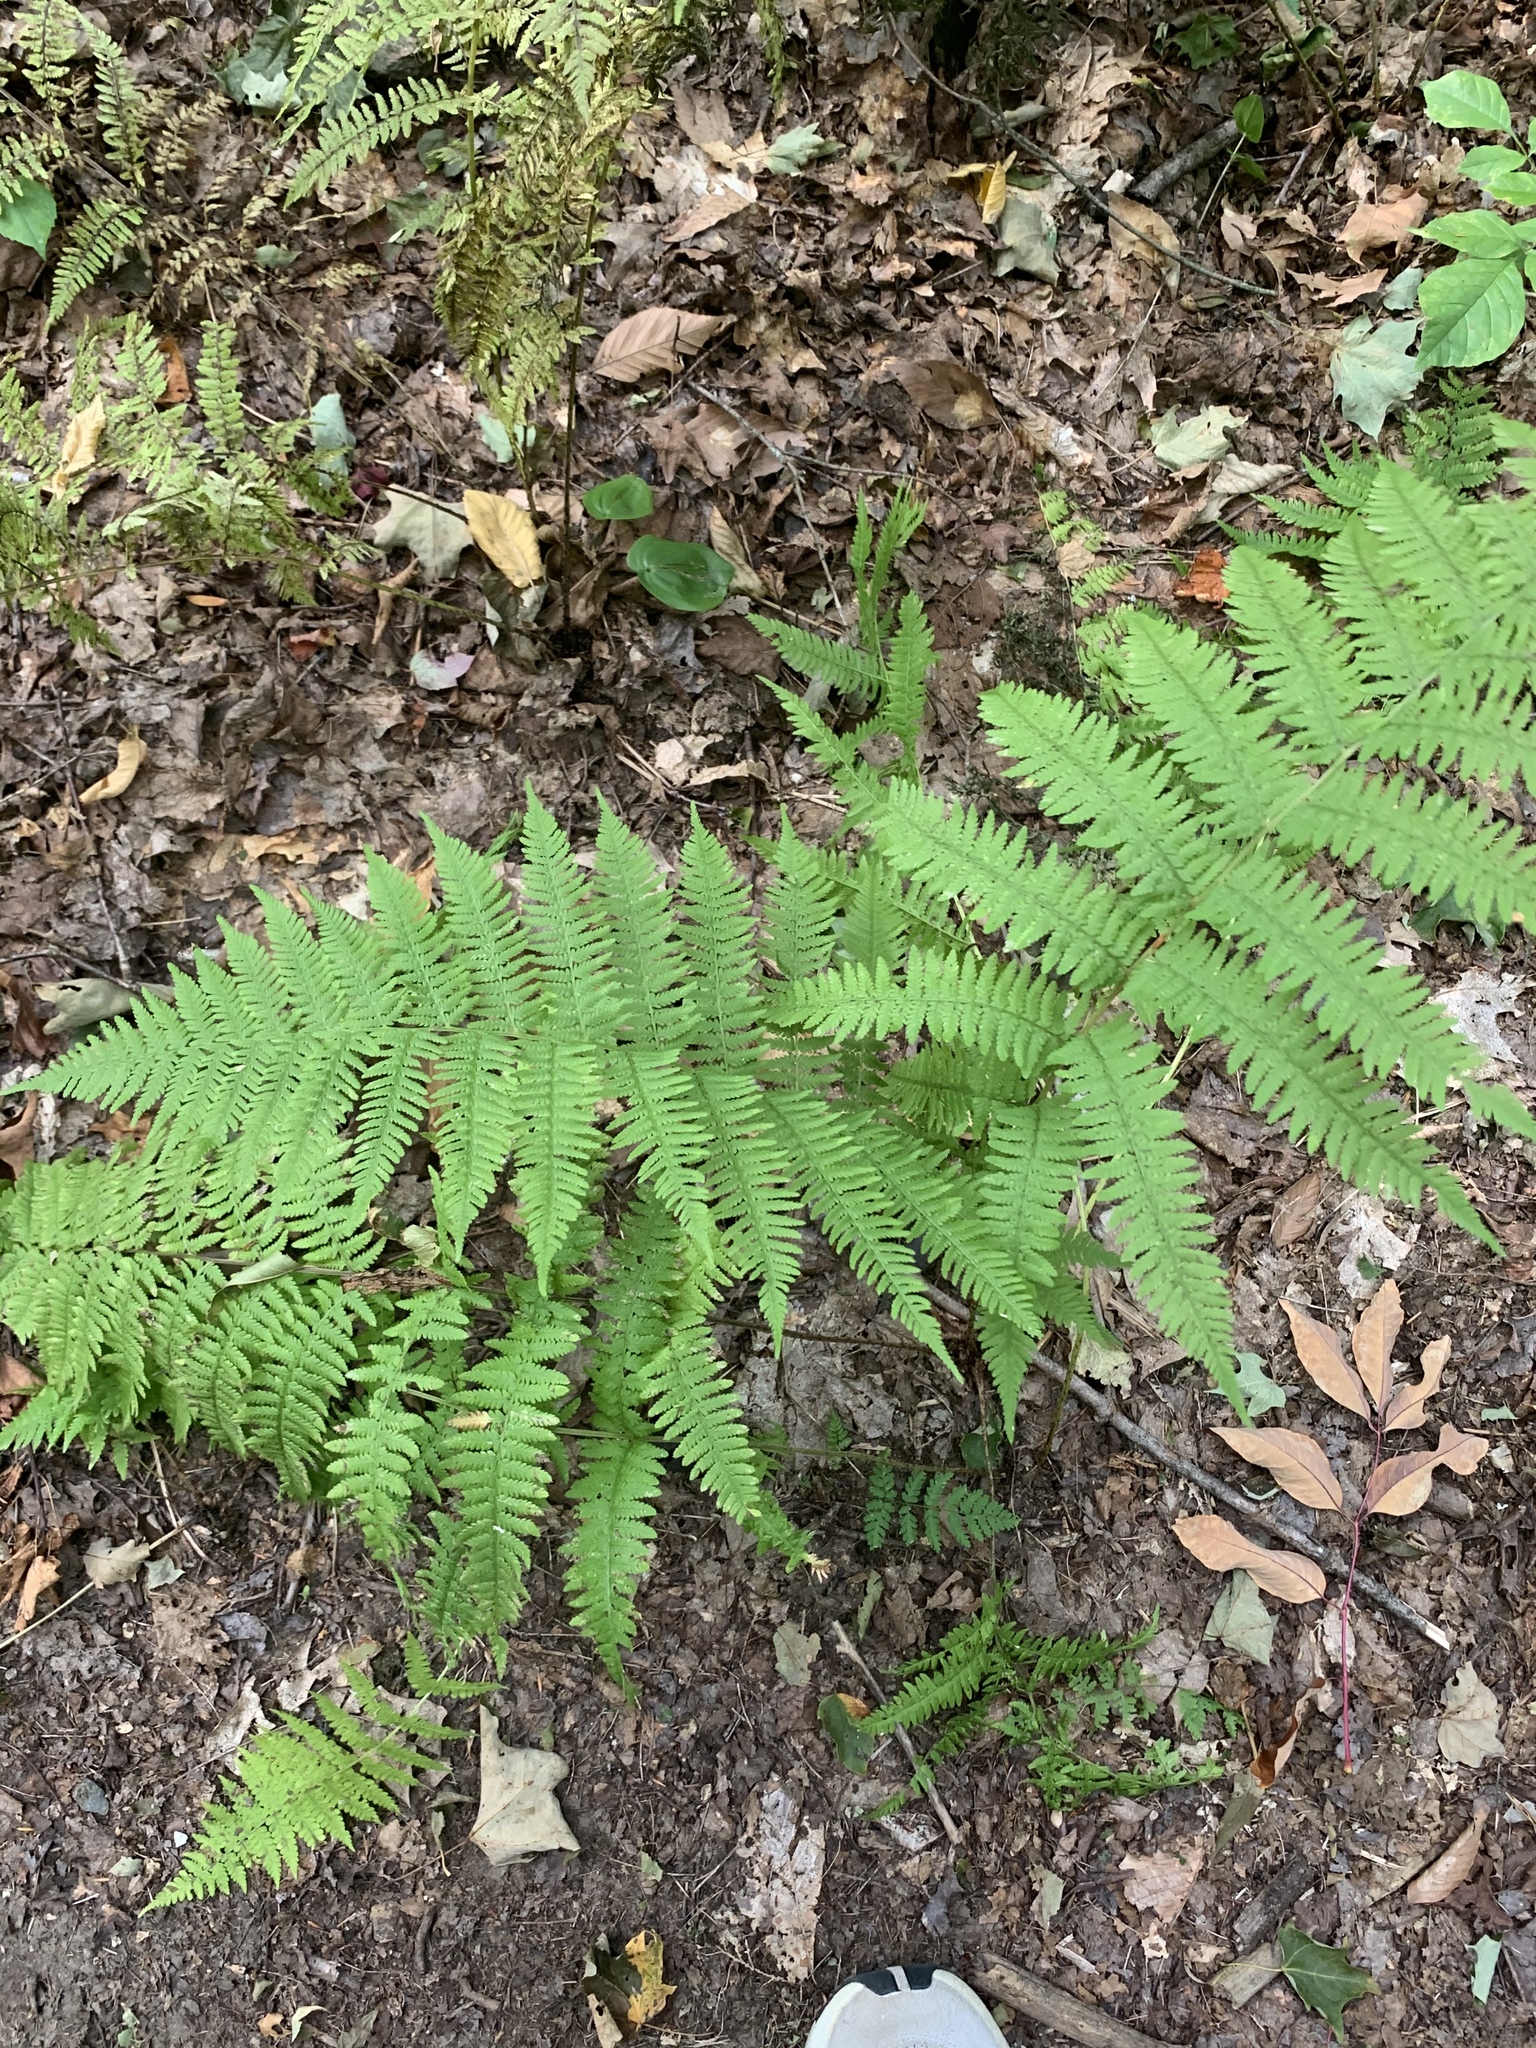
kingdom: Plantae
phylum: Tracheophyta
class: Polypodiopsida
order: Polypodiales
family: Athyriaceae
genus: Athyrium
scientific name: Athyrium angustum
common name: Northern lady fern
